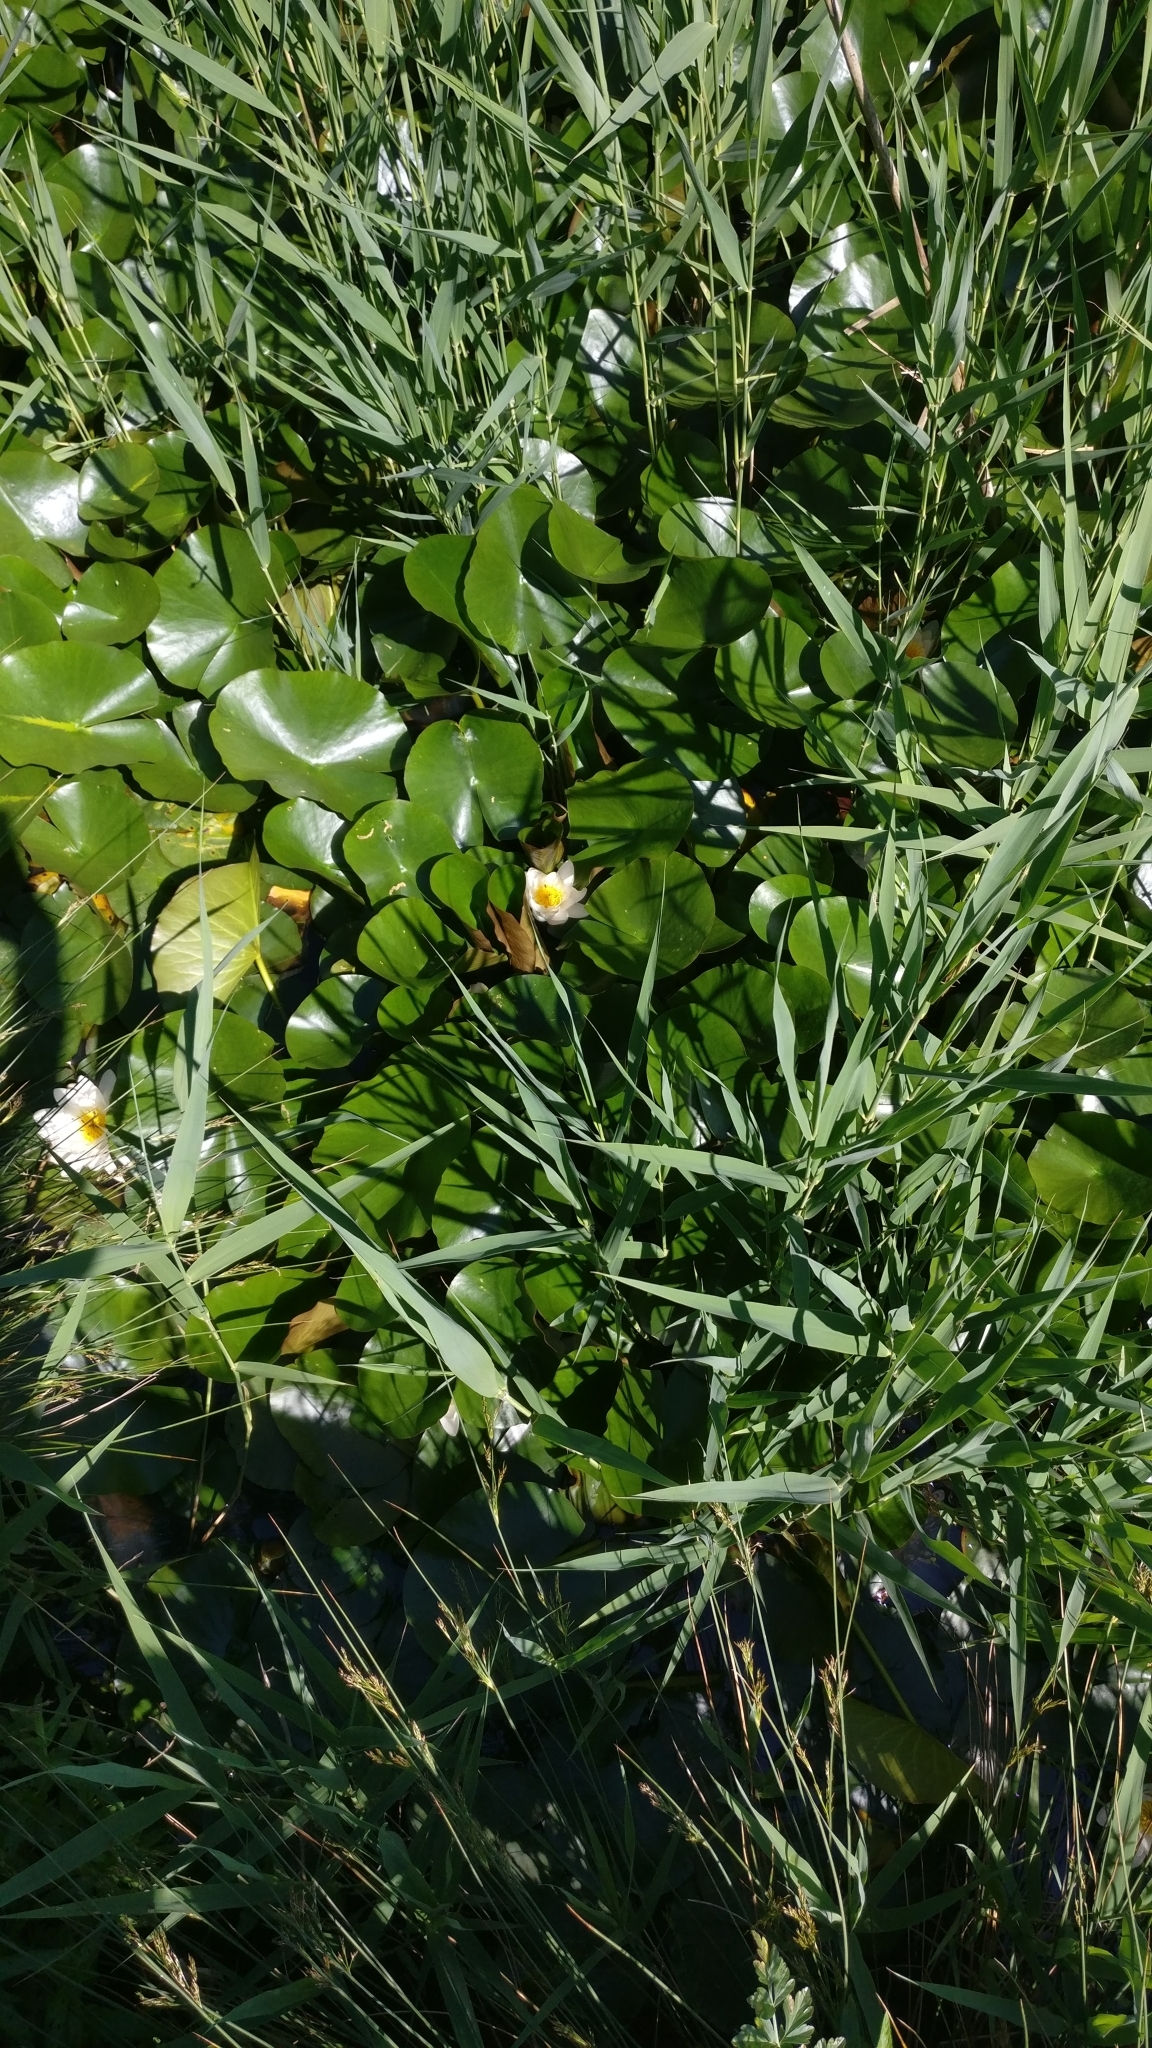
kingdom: Plantae
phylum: Tracheophyta
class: Magnoliopsida
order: Nymphaeales
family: Nymphaeaceae
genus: Nymphaea
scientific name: Nymphaea alba
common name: White water-lily
